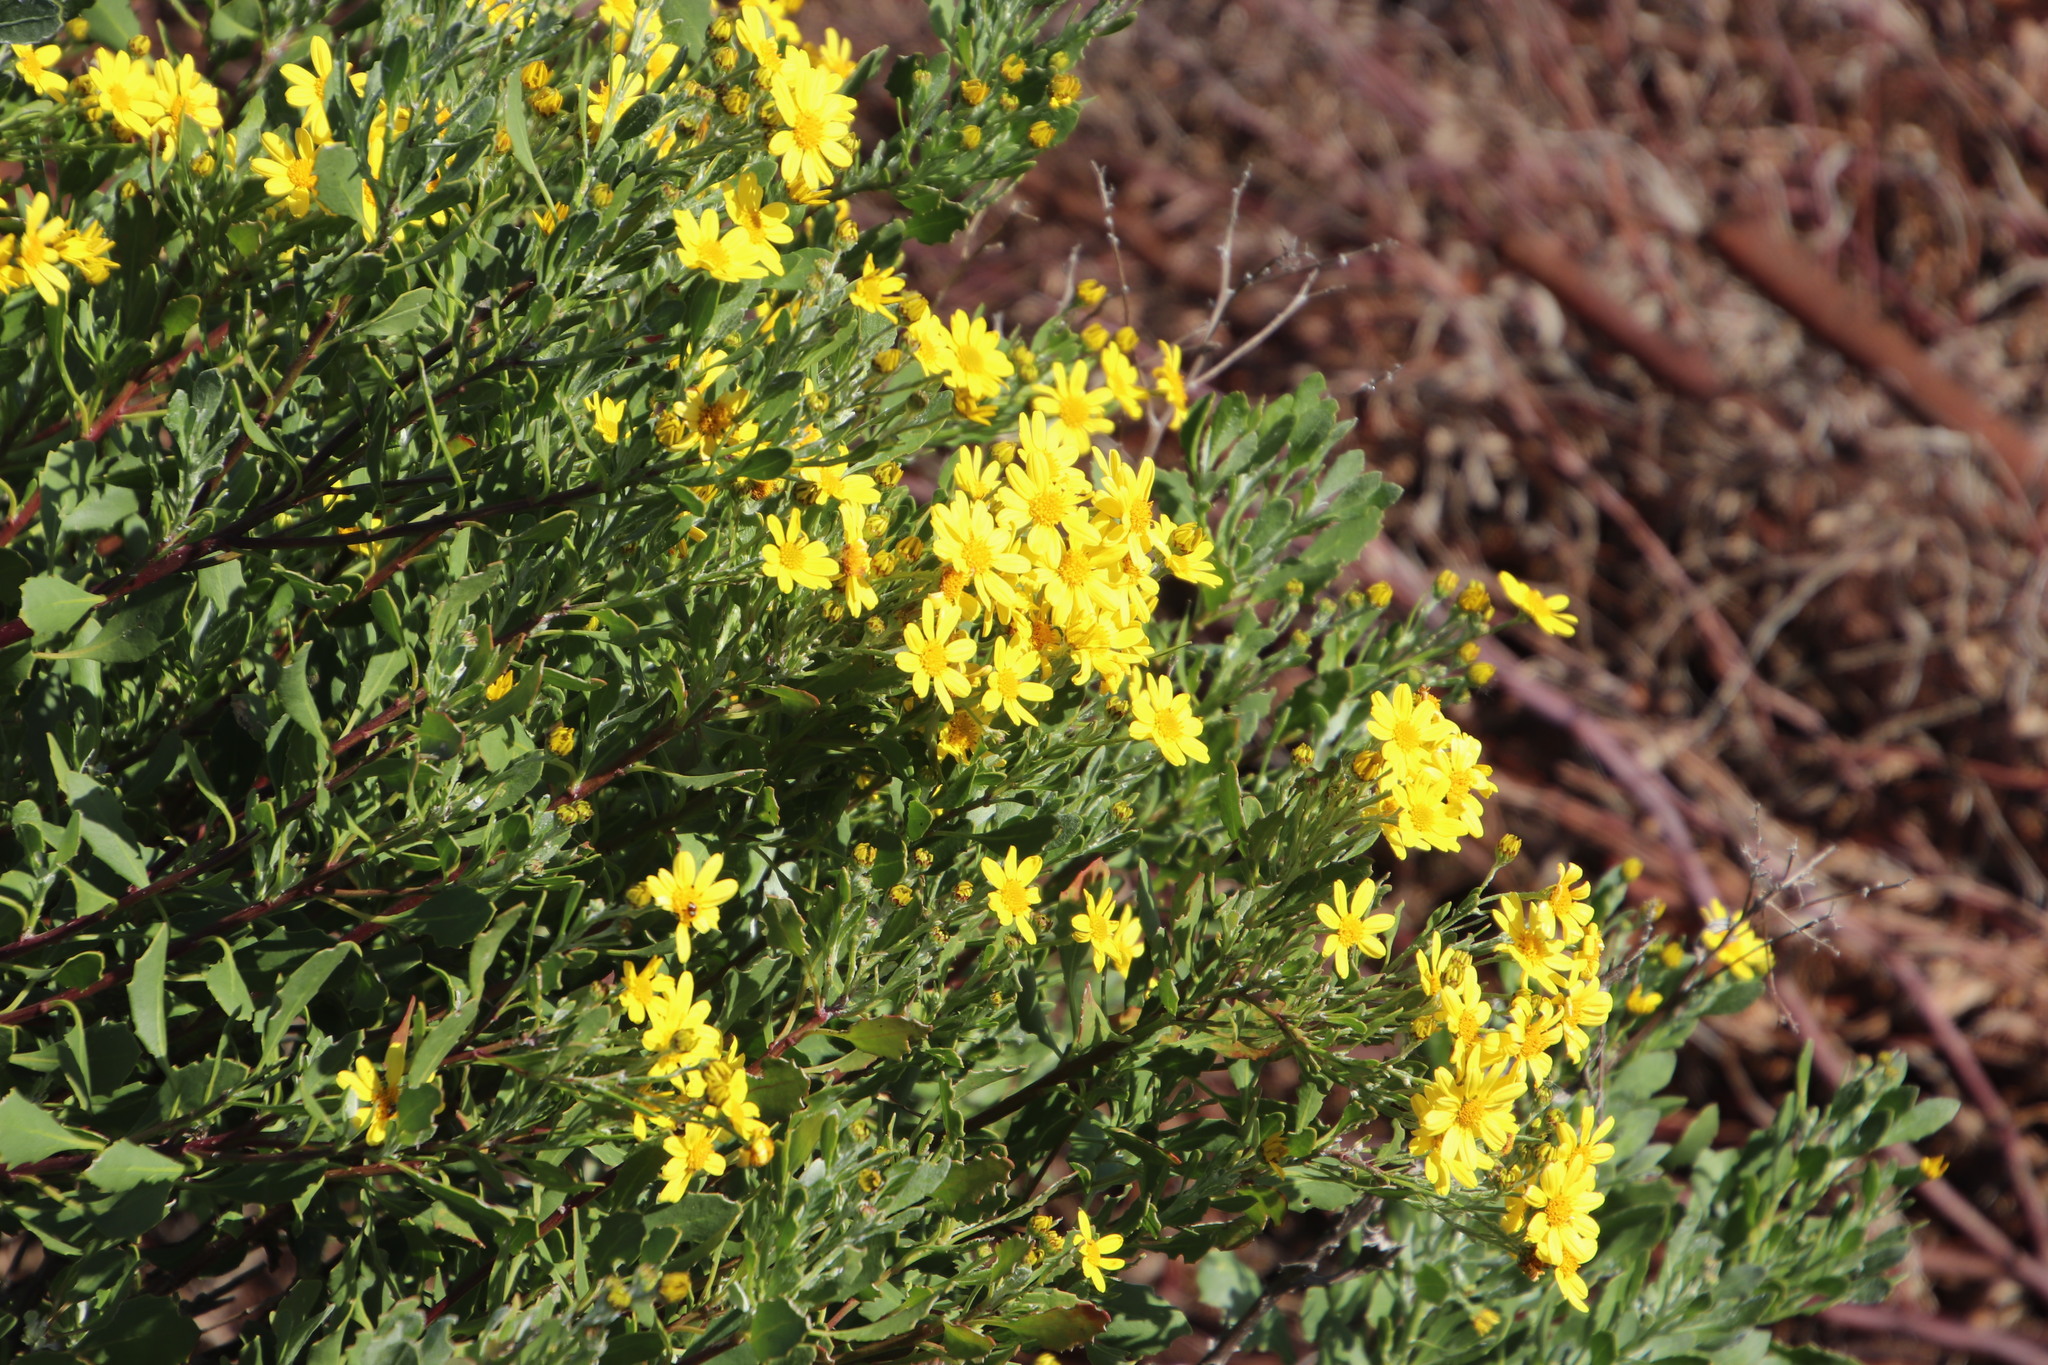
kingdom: Plantae
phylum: Tracheophyta
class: Magnoliopsida
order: Asterales
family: Asteraceae
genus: Osteospermum
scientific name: Osteospermum moniliferum
